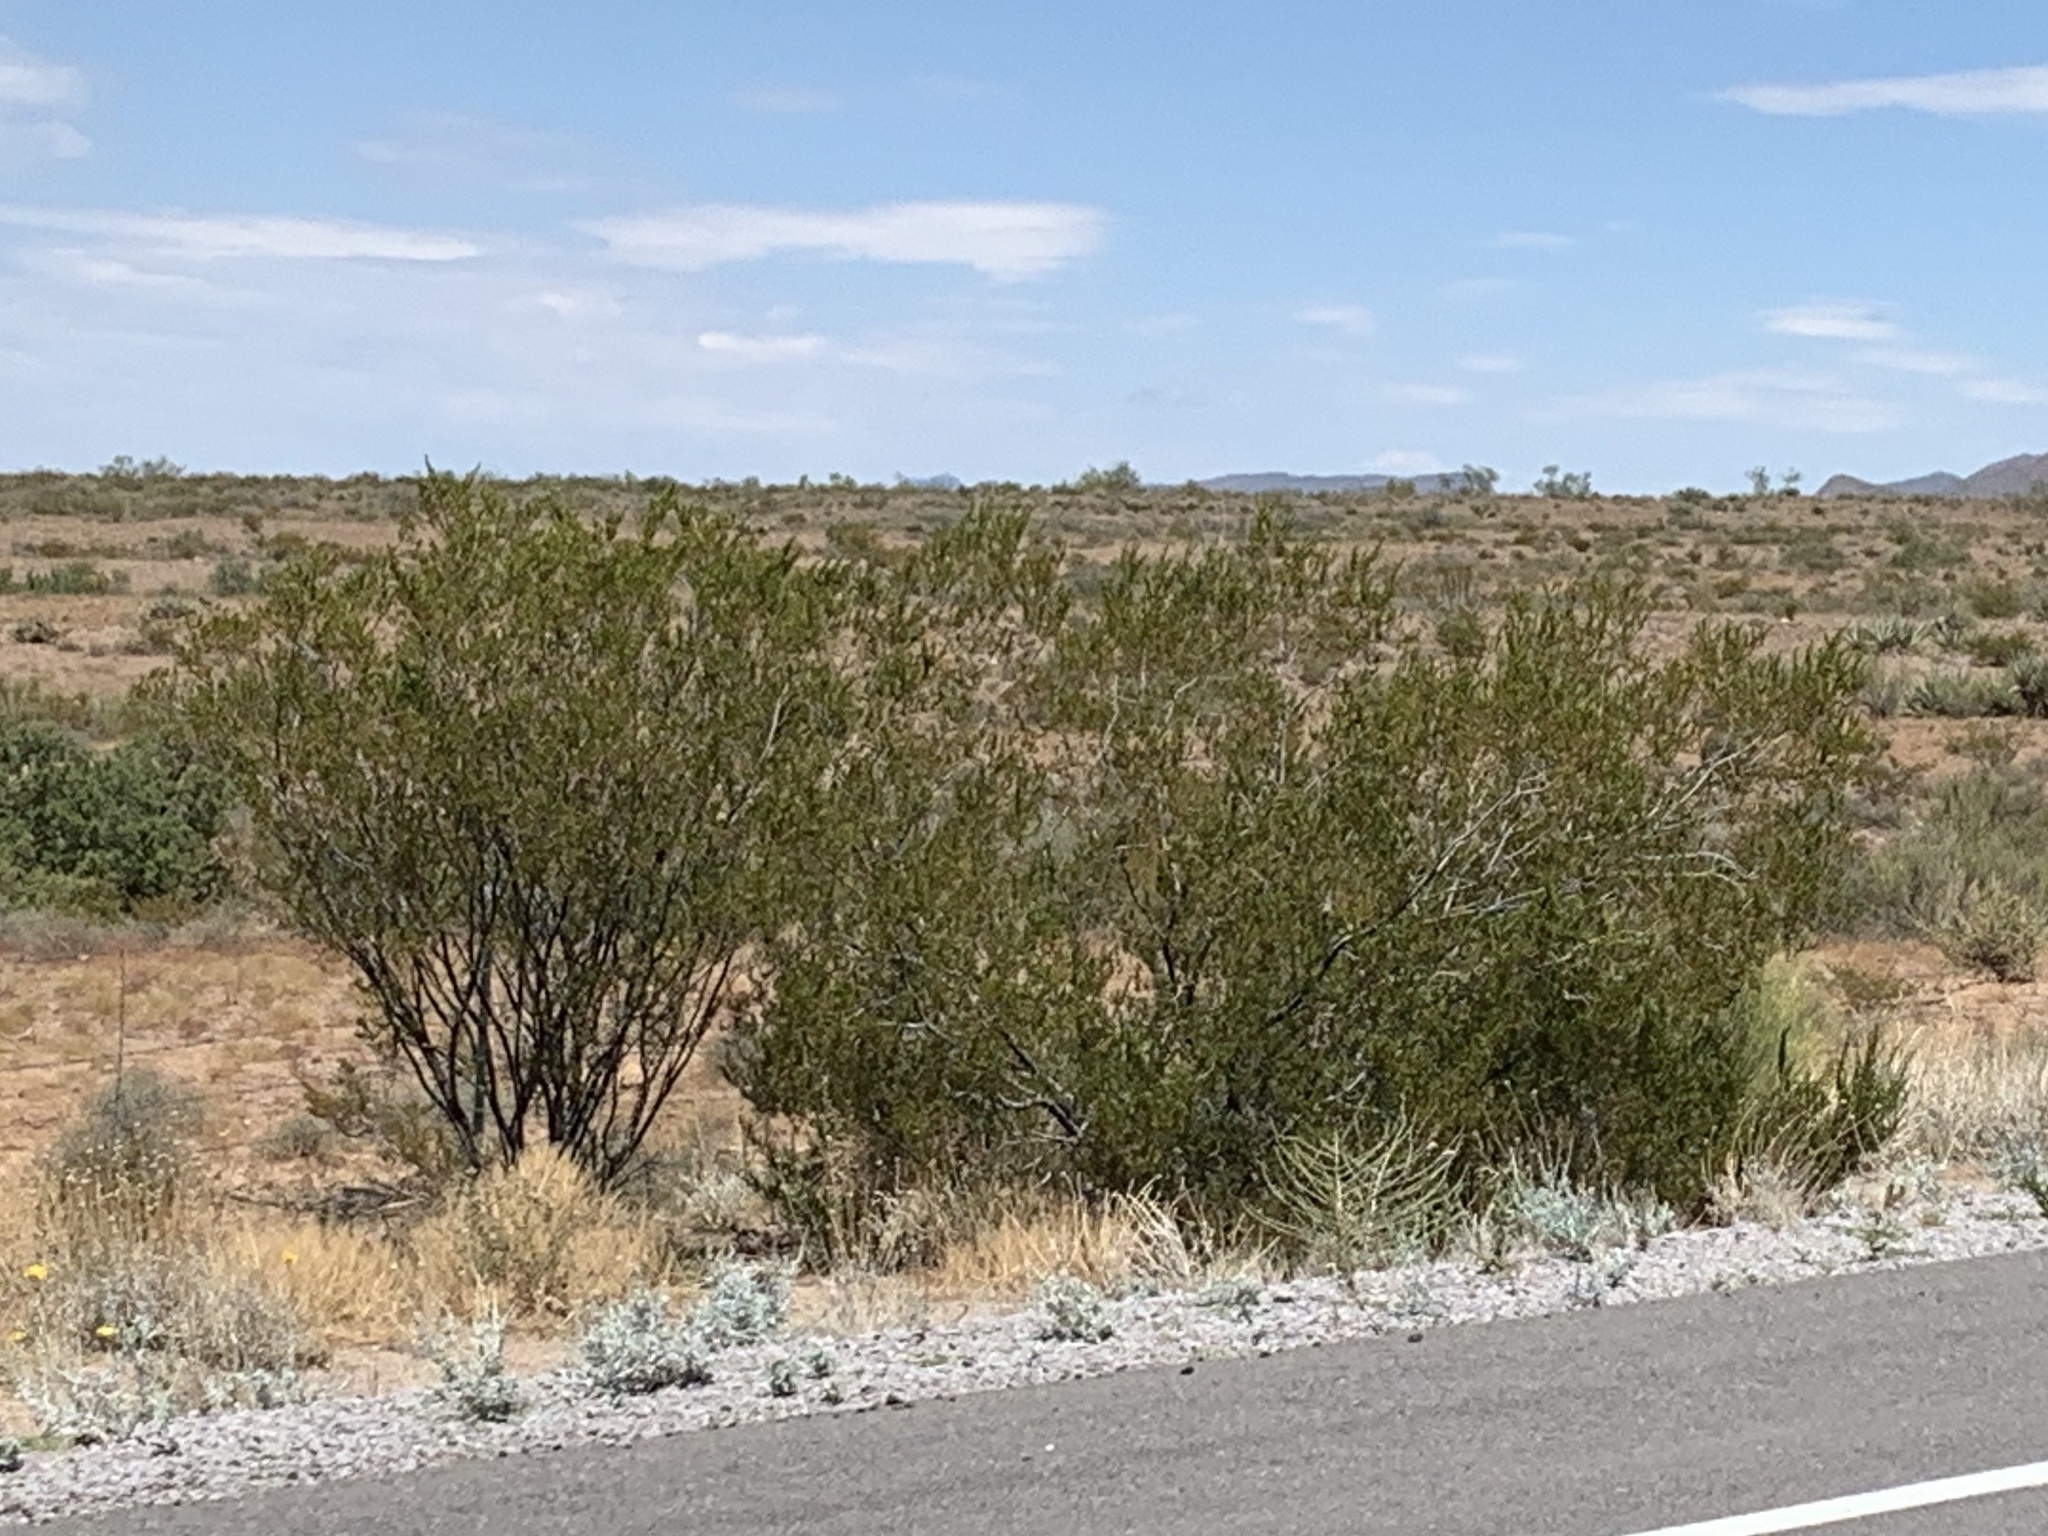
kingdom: Plantae
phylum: Tracheophyta
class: Magnoliopsida
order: Zygophyllales
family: Zygophyllaceae
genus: Larrea
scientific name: Larrea tridentata
